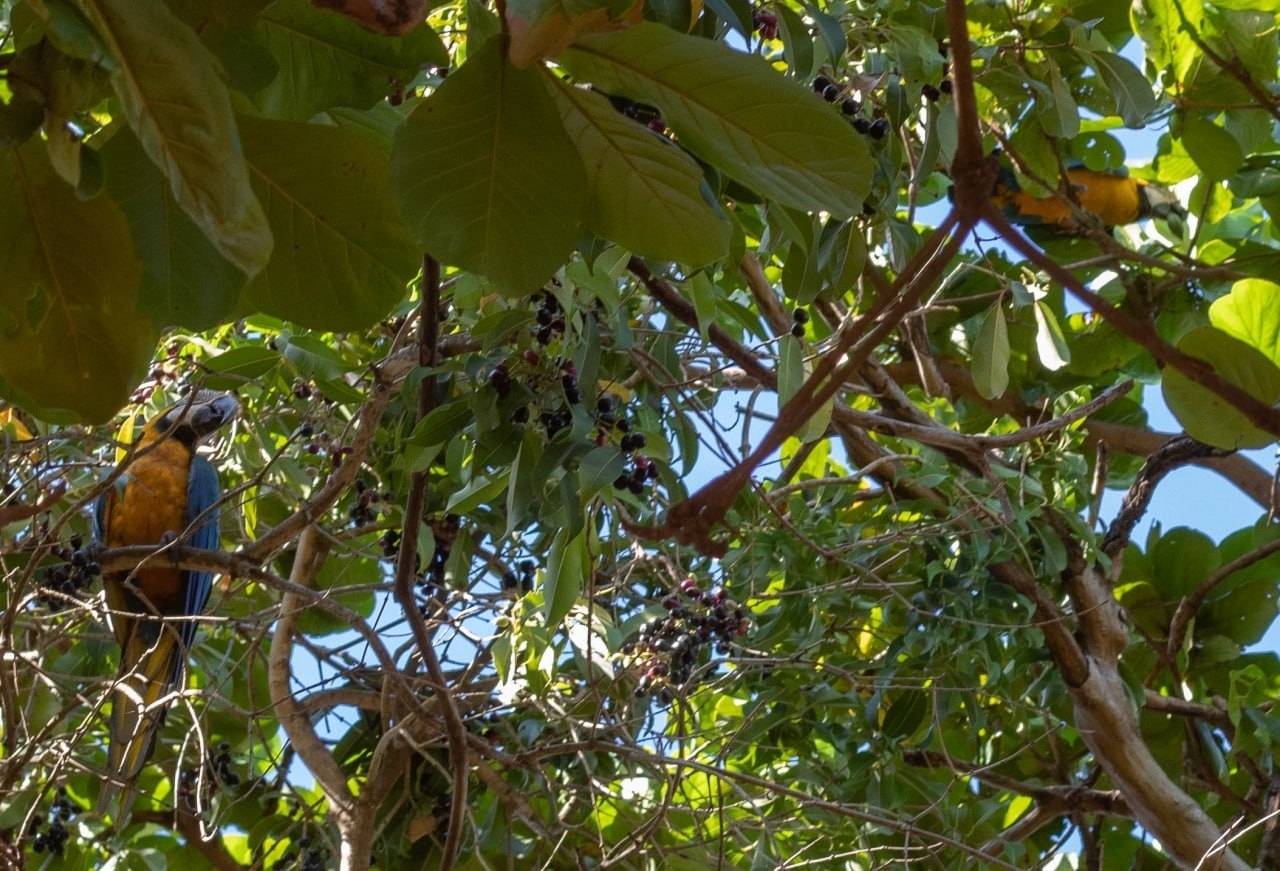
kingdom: Animalia
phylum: Chordata
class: Aves
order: Psittaciformes
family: Psittacidae
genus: Ara
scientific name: Ara ararauna
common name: Blue-and-yellow macaw
